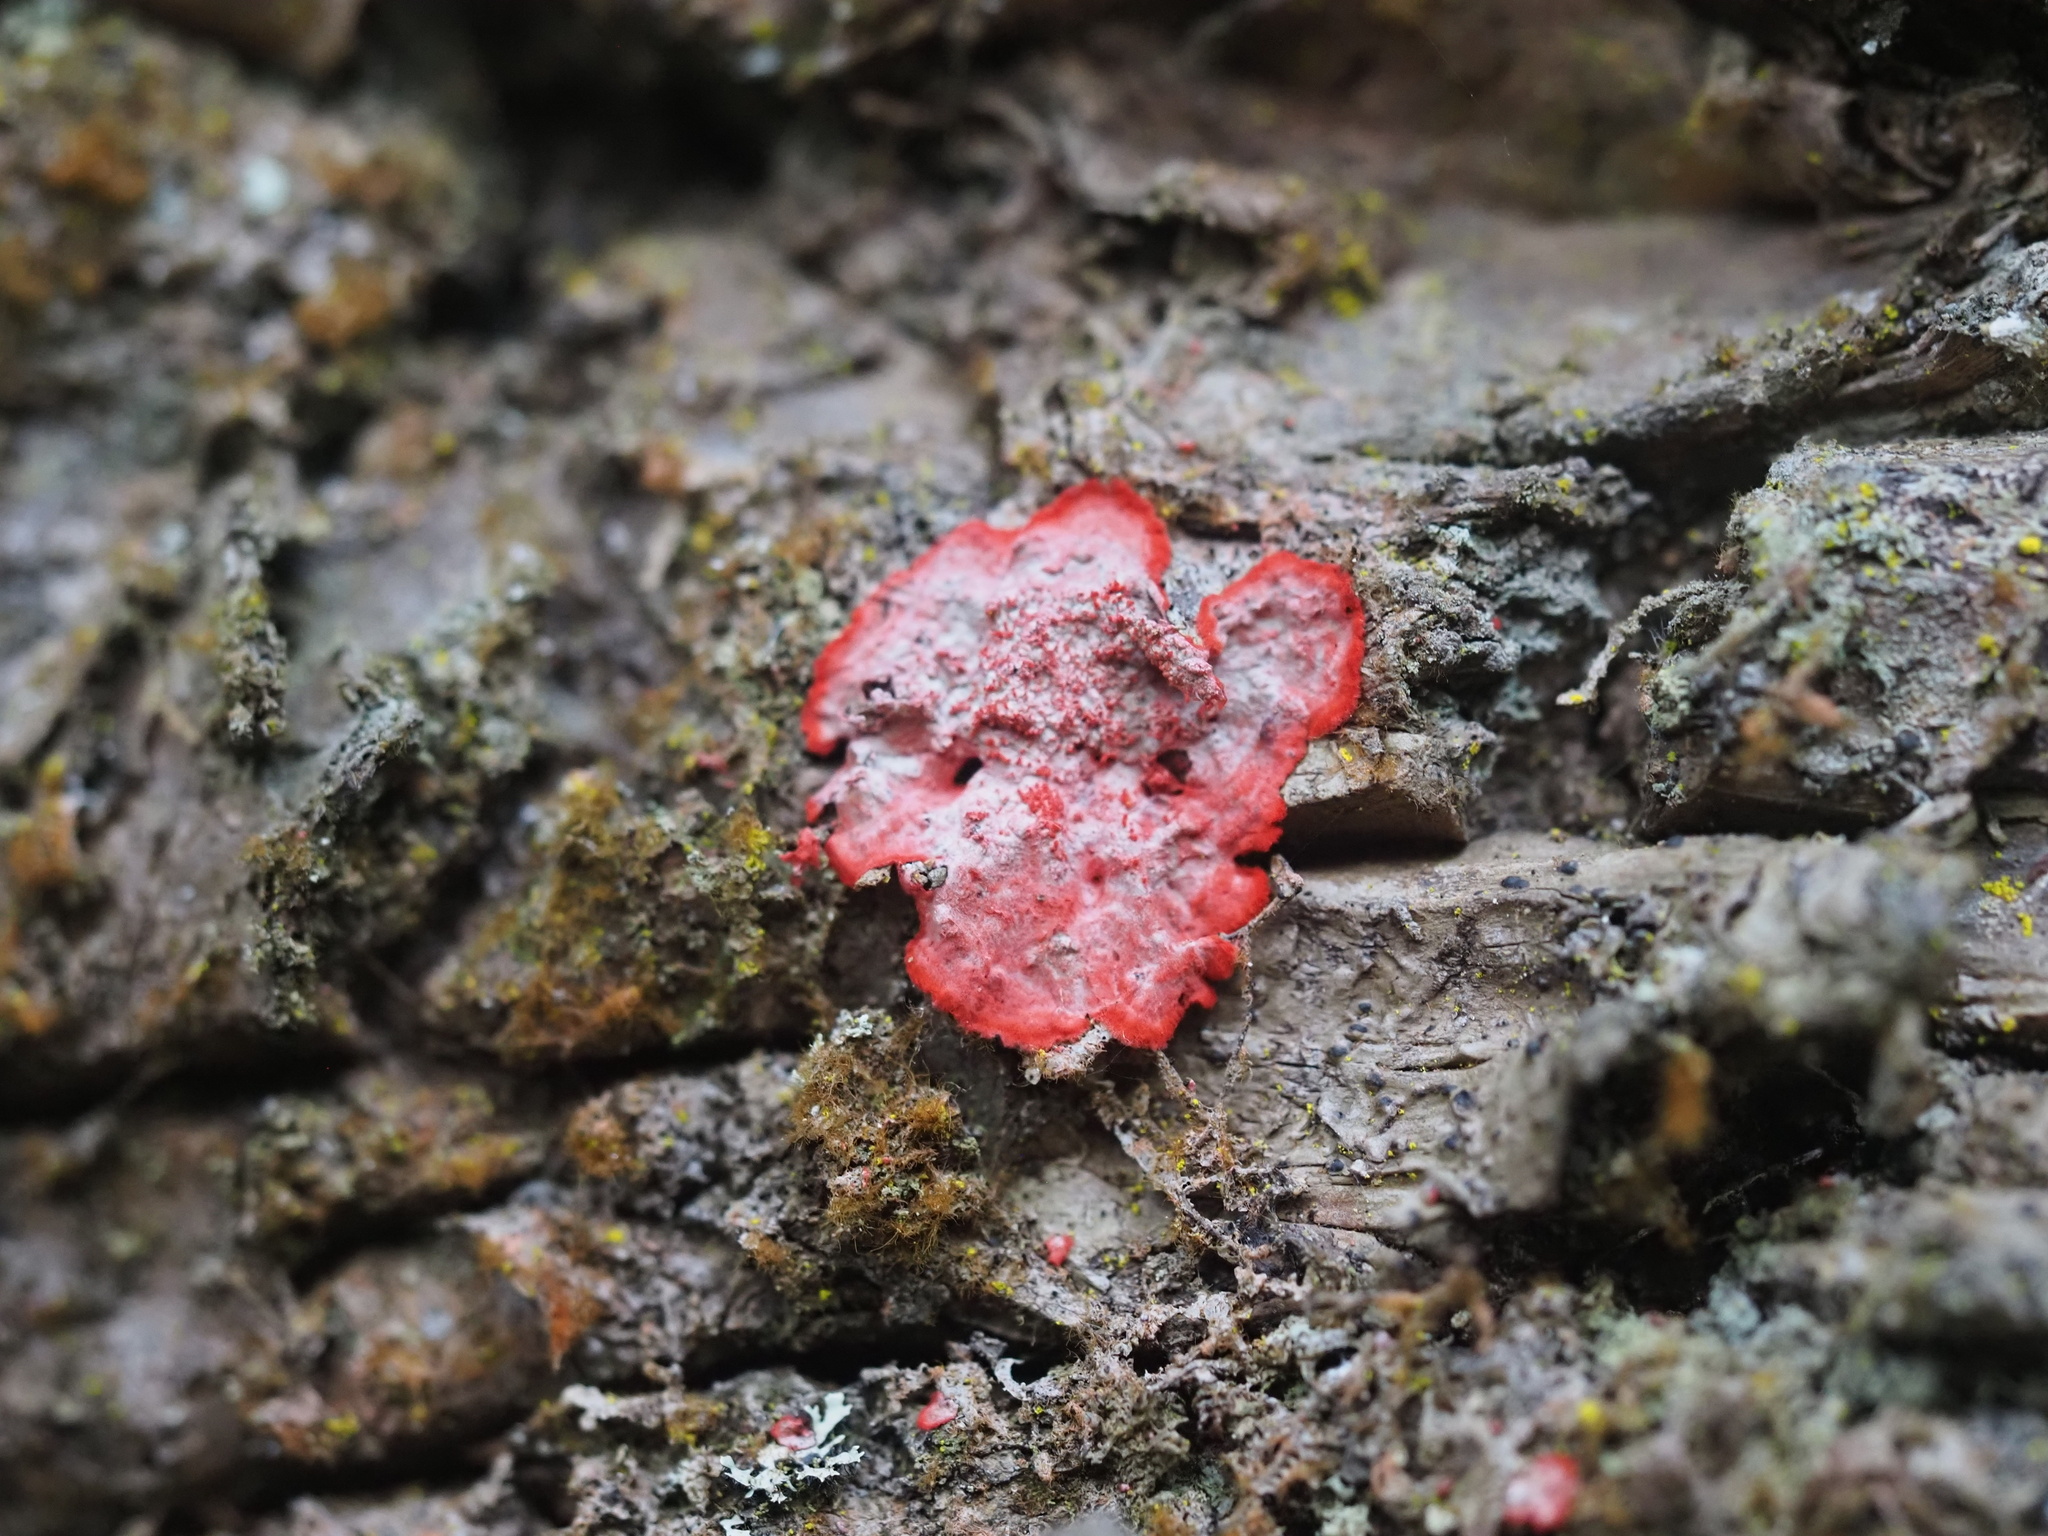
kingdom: Fungi
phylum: Ascomycota
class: Arthoniomycetes
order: Arthoniales
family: Arthoniaceae
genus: Herpothallon
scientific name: Herpothallon rubrocinctum
